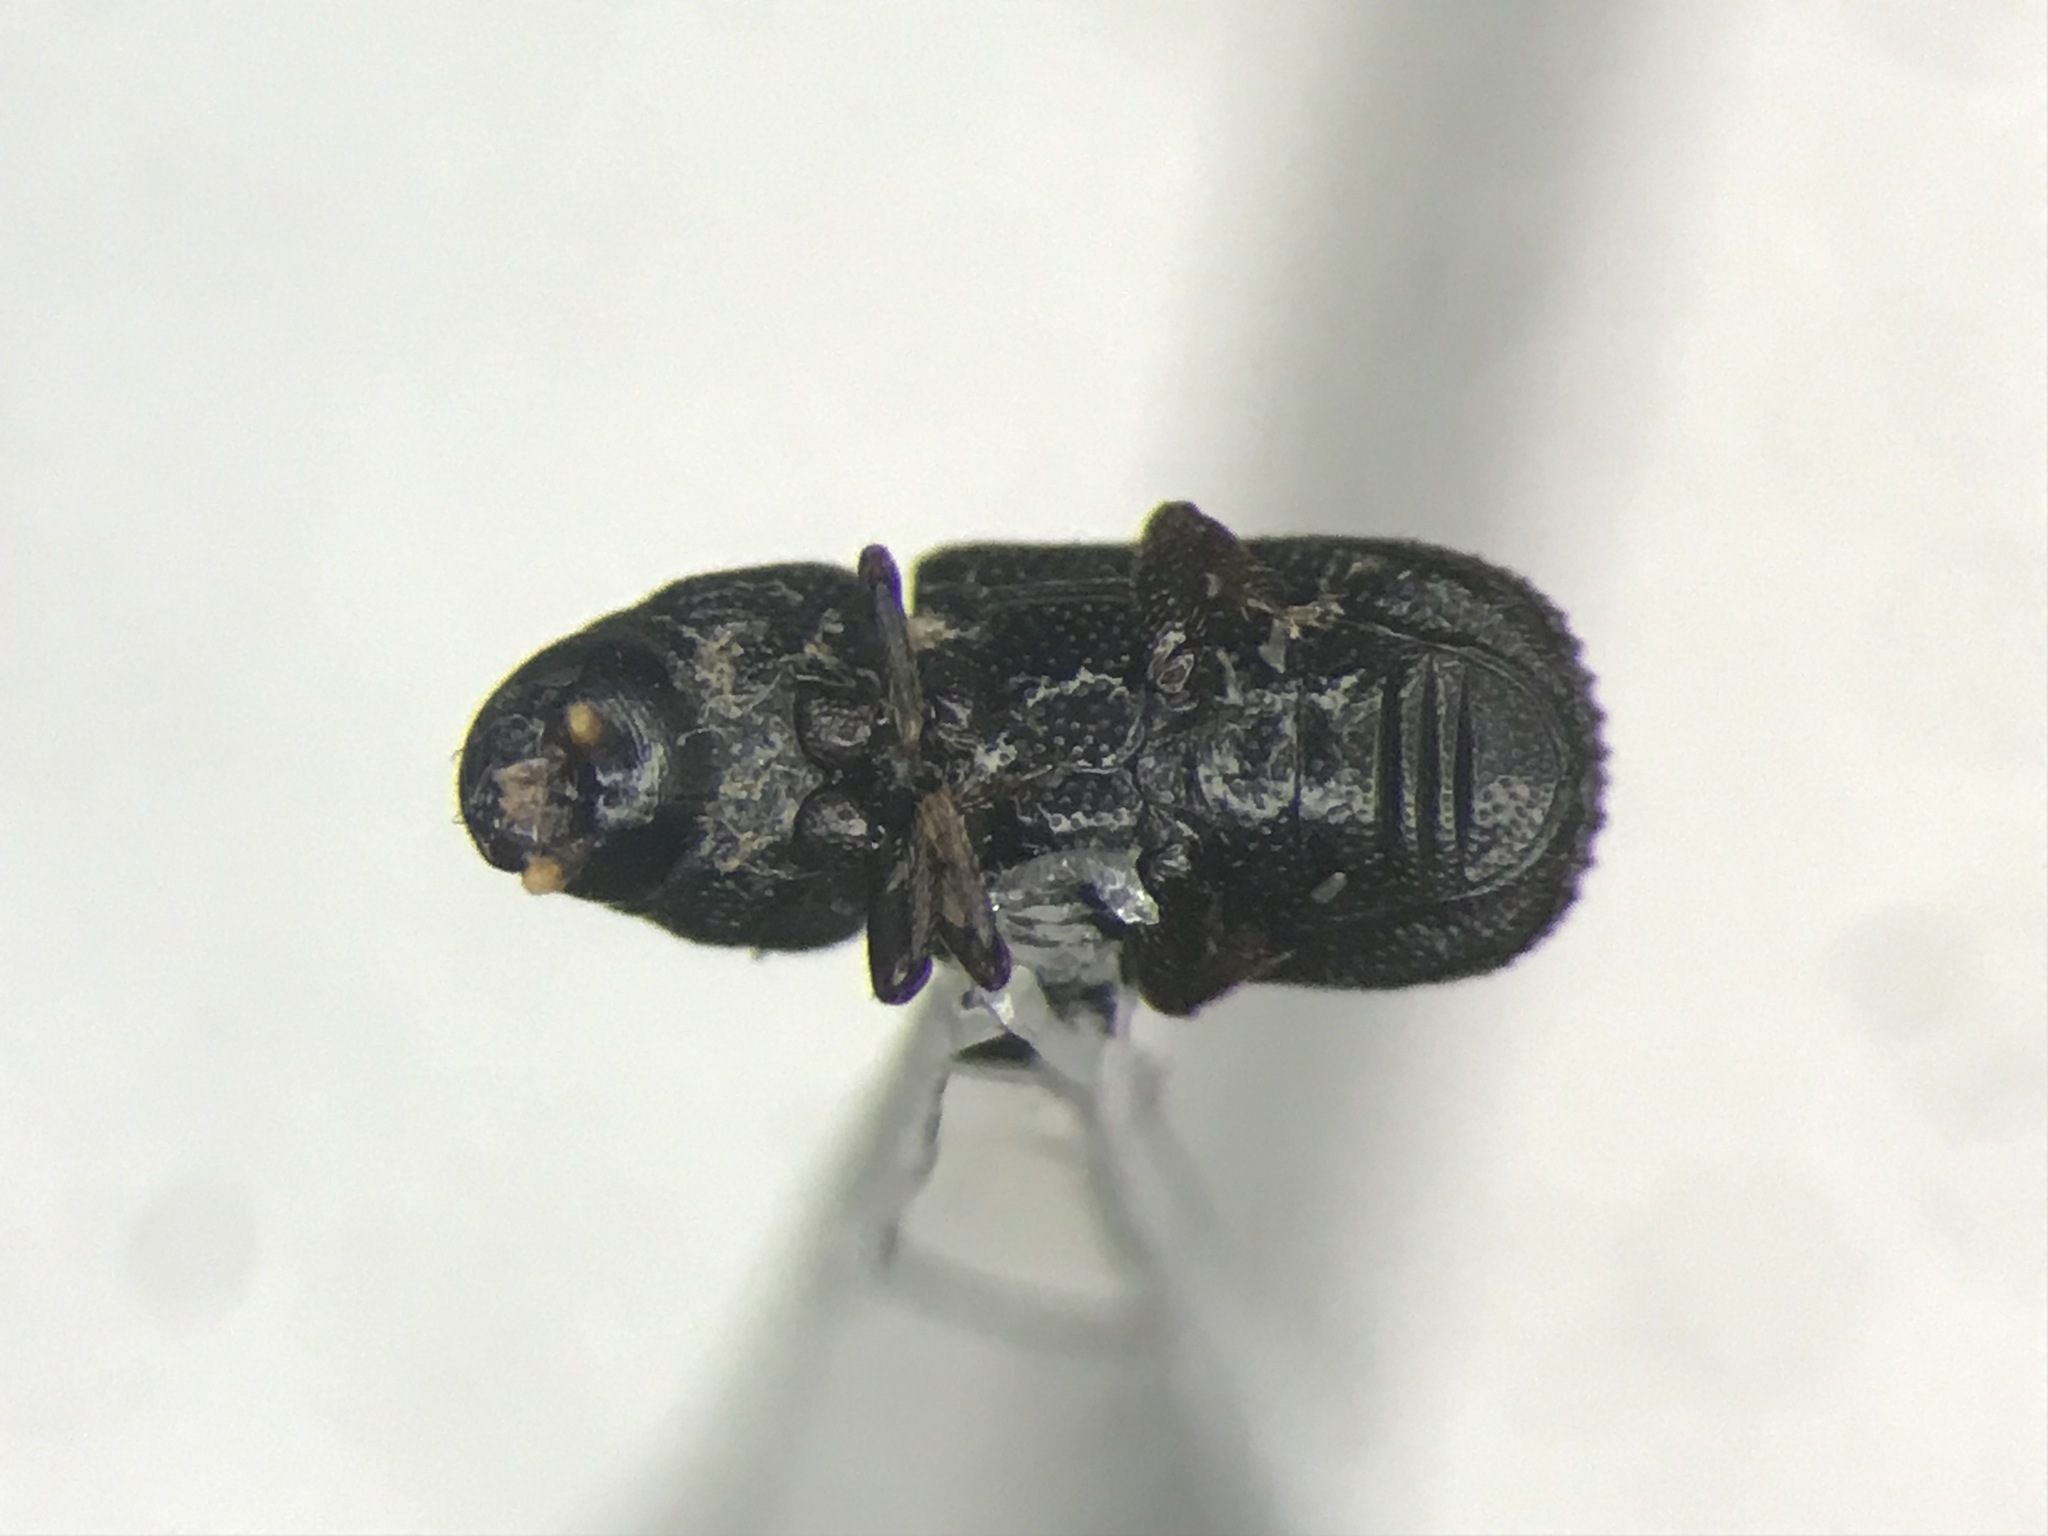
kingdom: Animalia
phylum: Arthropoda
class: Insecta
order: Coleoptera
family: Curculionidae
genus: Stenoscelis
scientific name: Stenoscelis brevis
